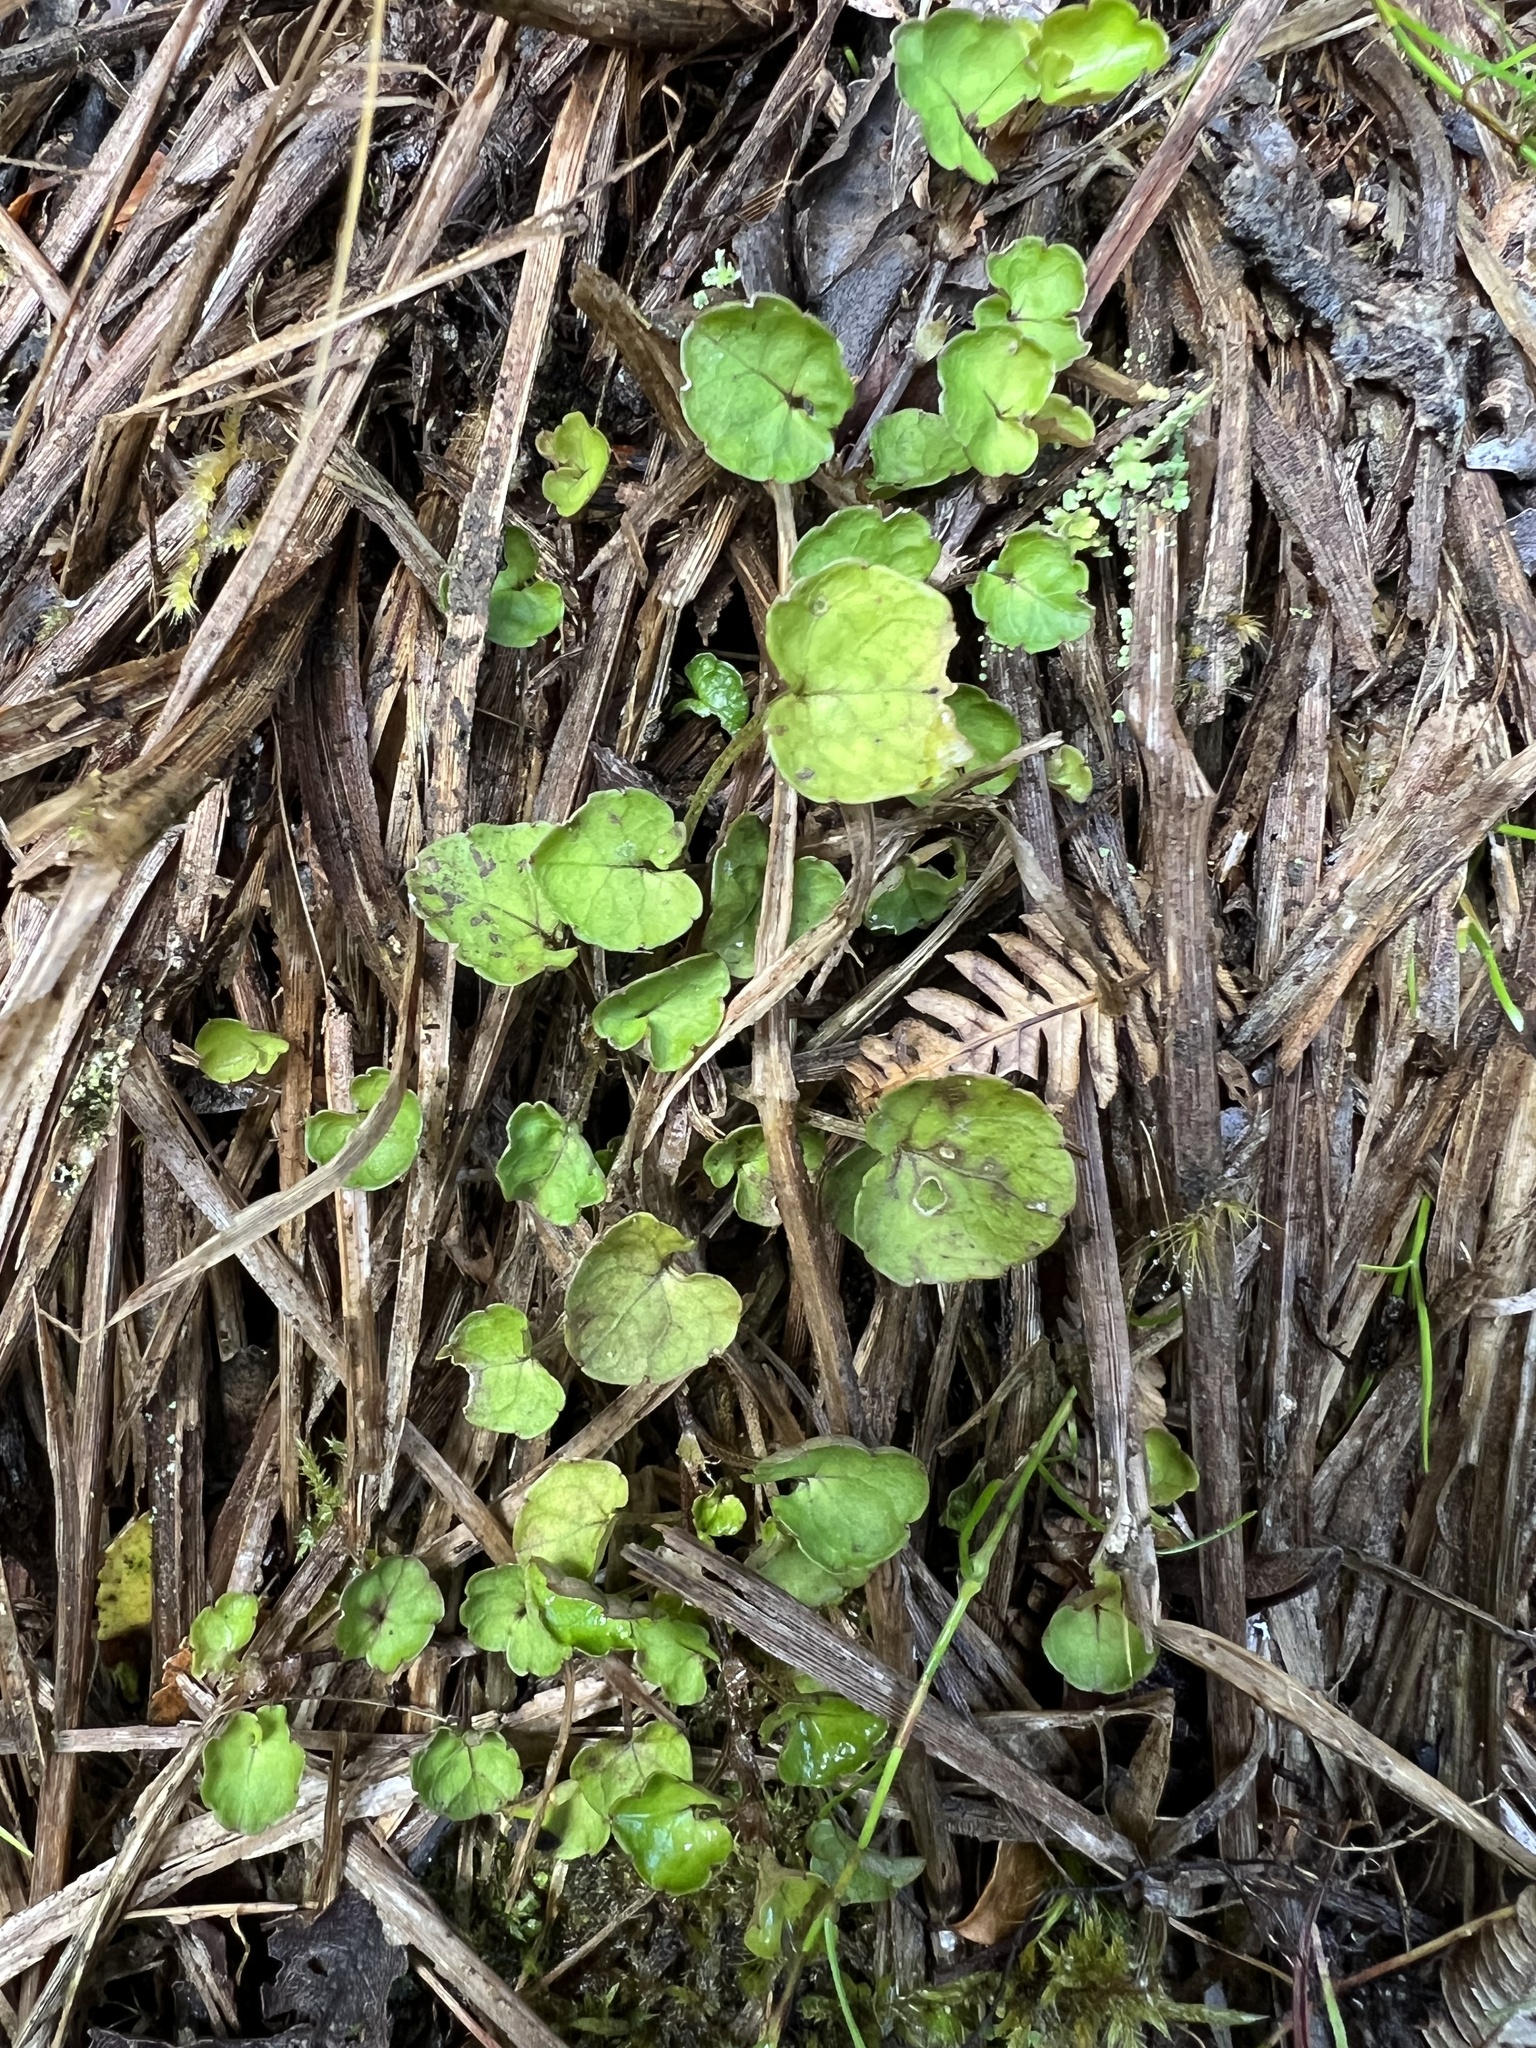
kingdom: Plantae
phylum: Tracheophyta
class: Magnoliopsida
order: Malpighiales
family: Violaceae
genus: Viola
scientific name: Viola filicaulis
